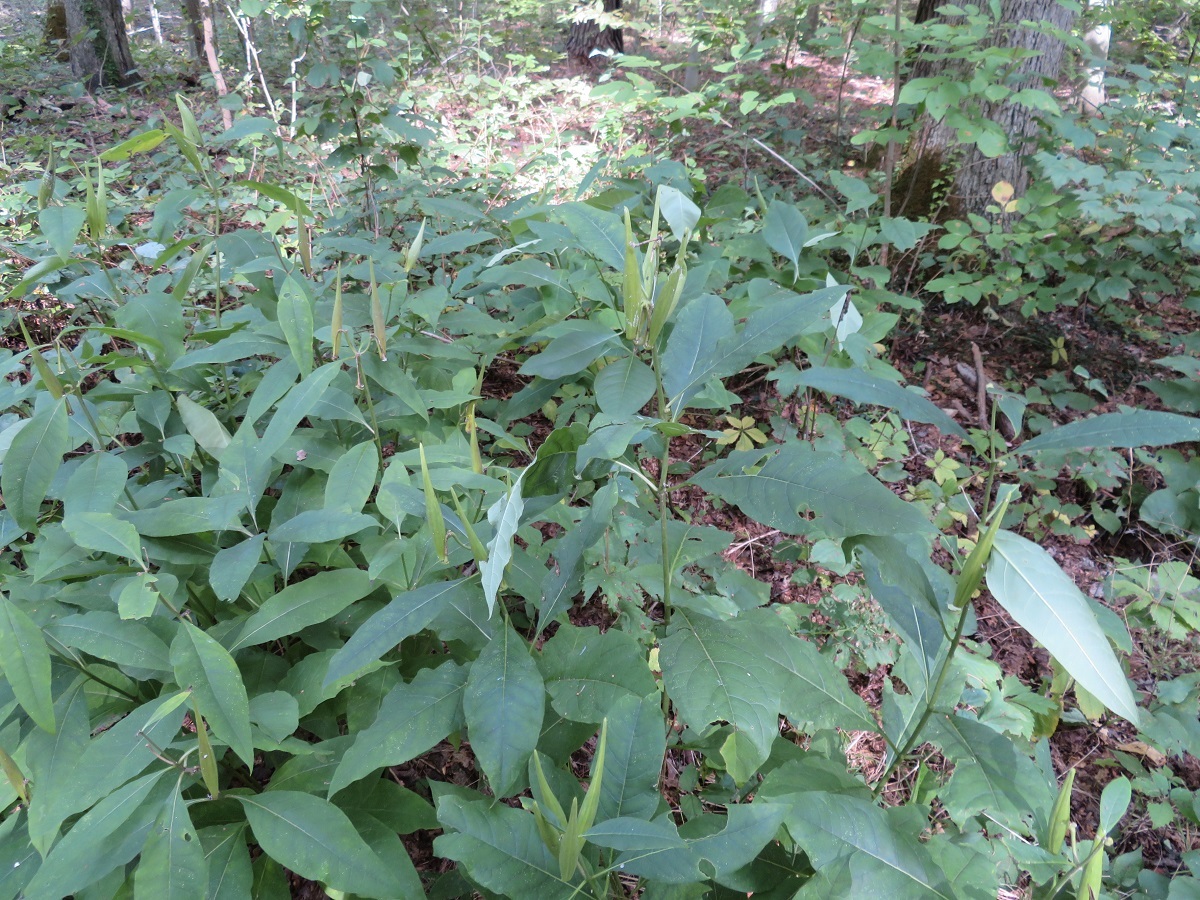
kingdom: Plantae
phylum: Tracheophyta
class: Magnoliopsida
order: Gentianales
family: Apocynaceae
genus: Asclepias
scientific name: Asclepias exaltata
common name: Poke milkweed
